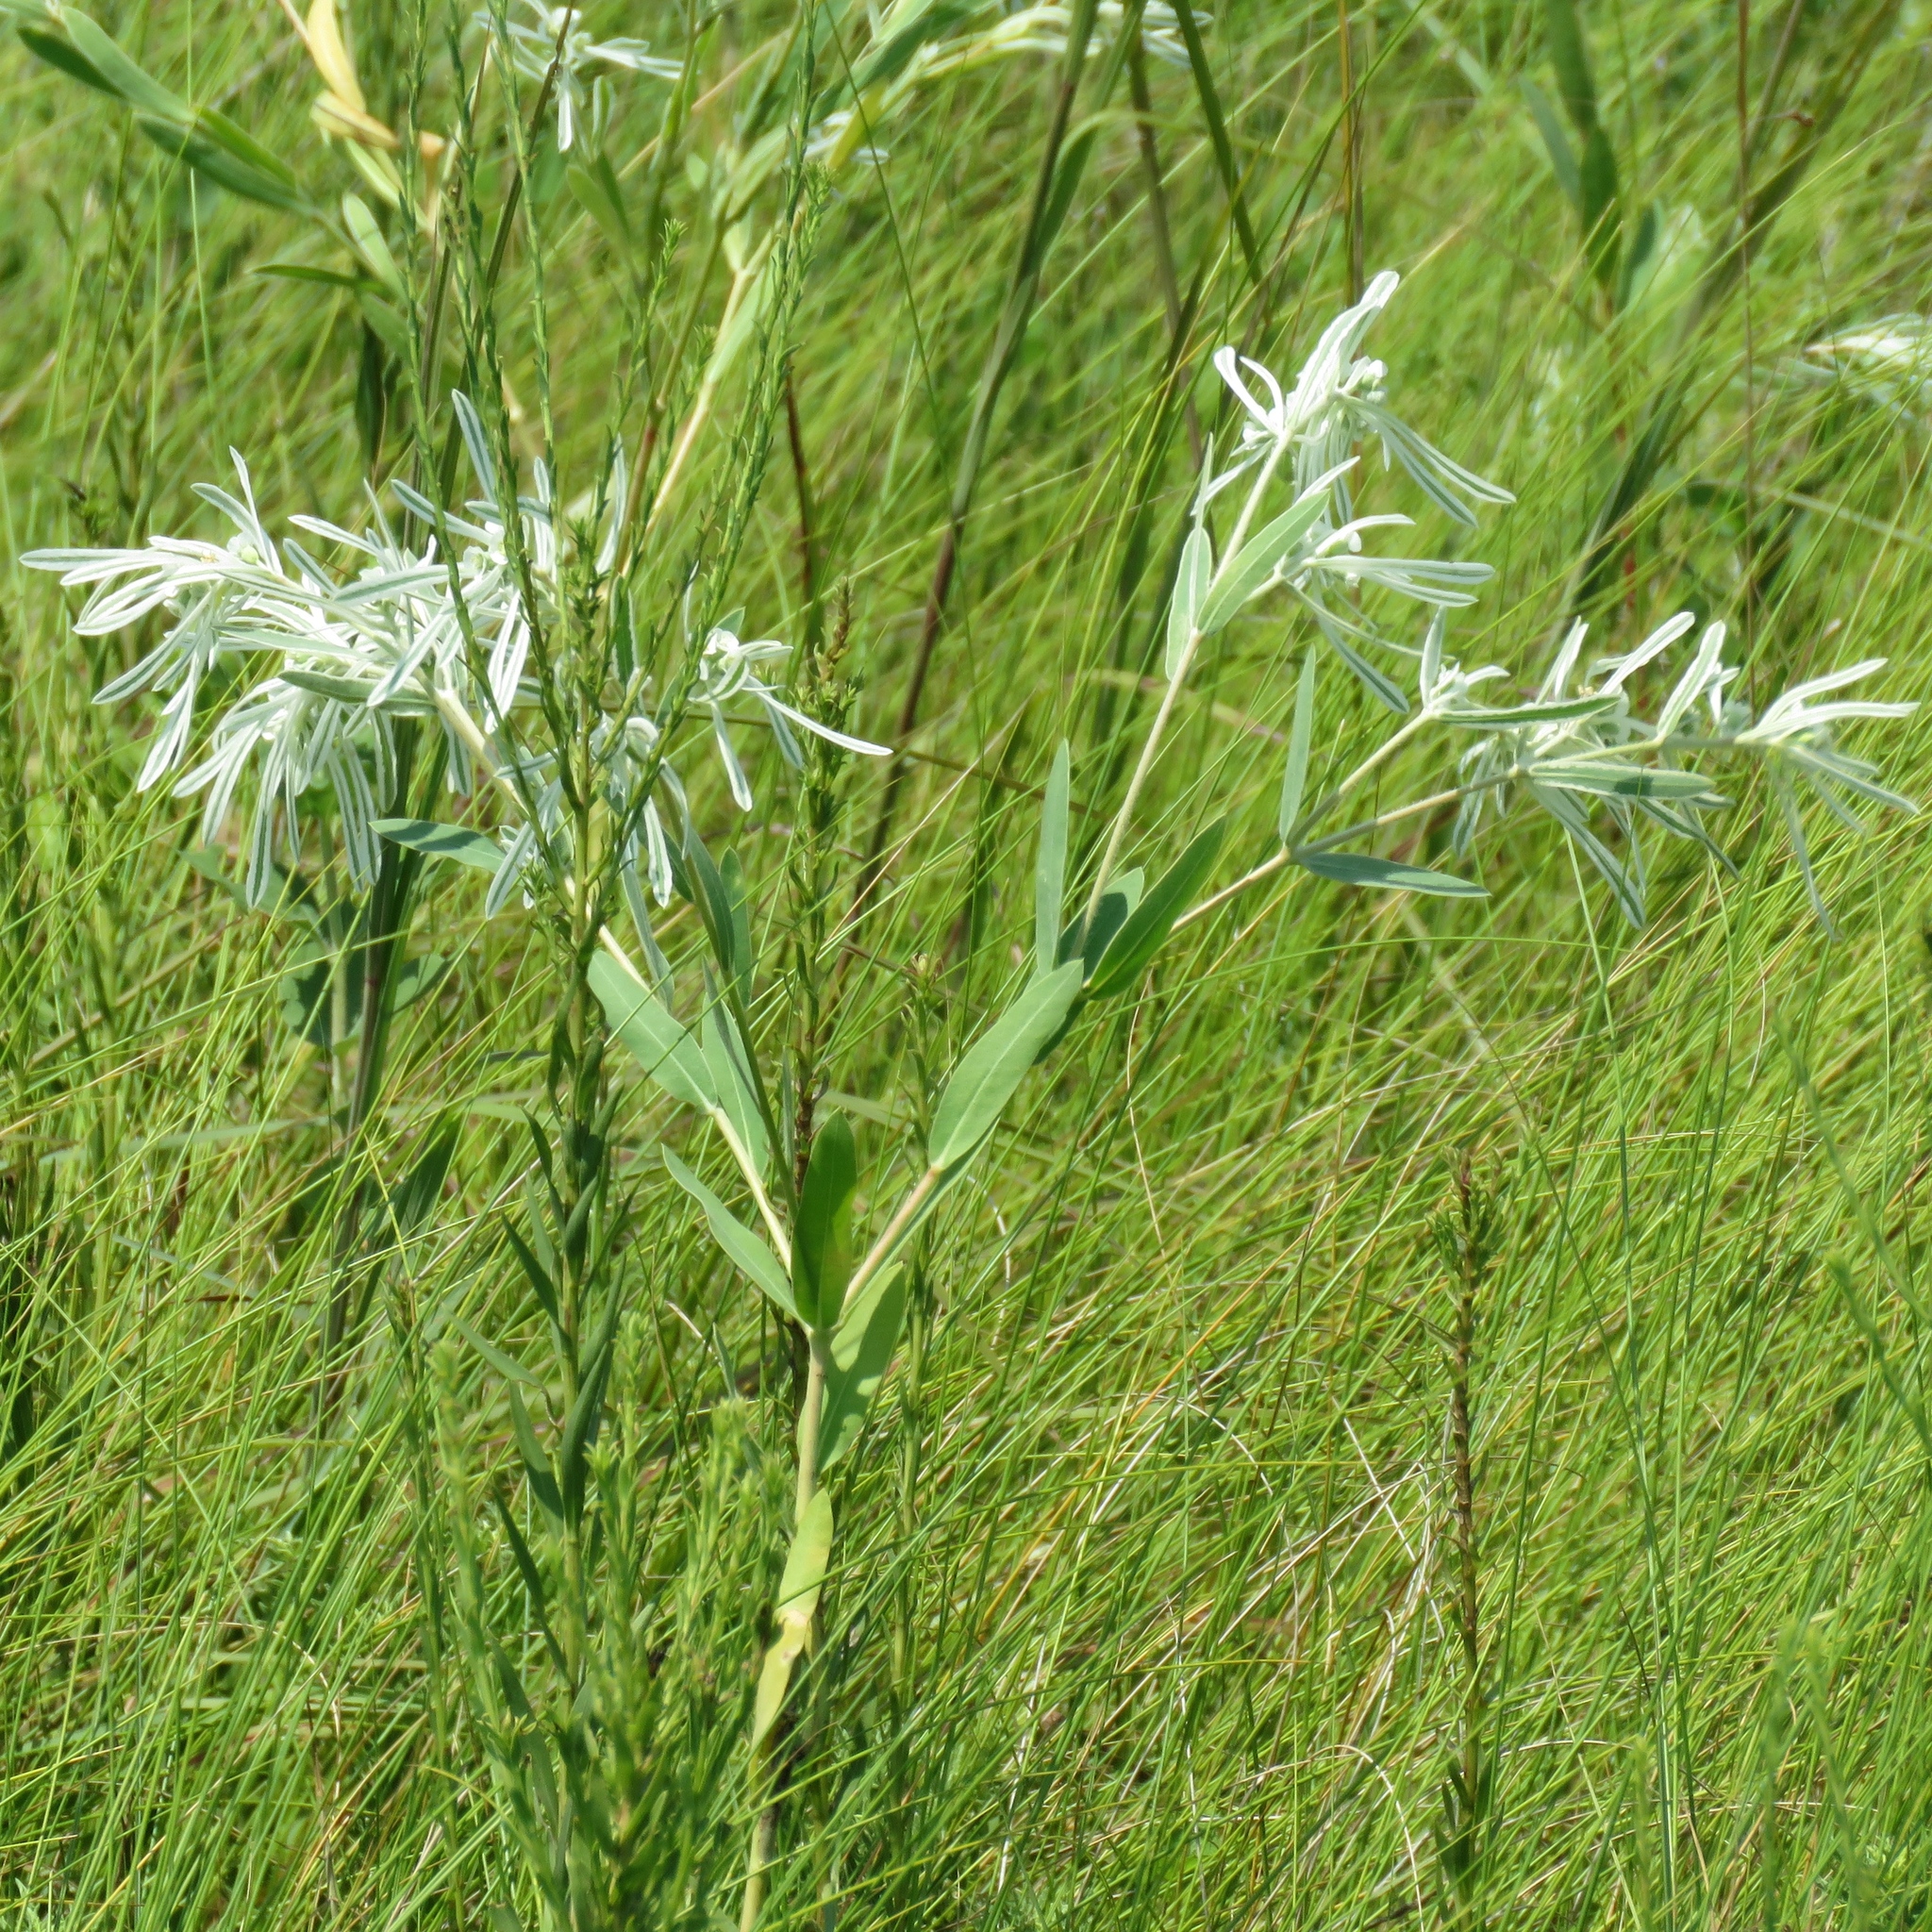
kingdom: Plantae
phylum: Tracheophyta
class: Magnoliopsida
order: Malpighiales
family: Euphorbiaceae
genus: Euphorbia
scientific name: Euphorbia bicolor
